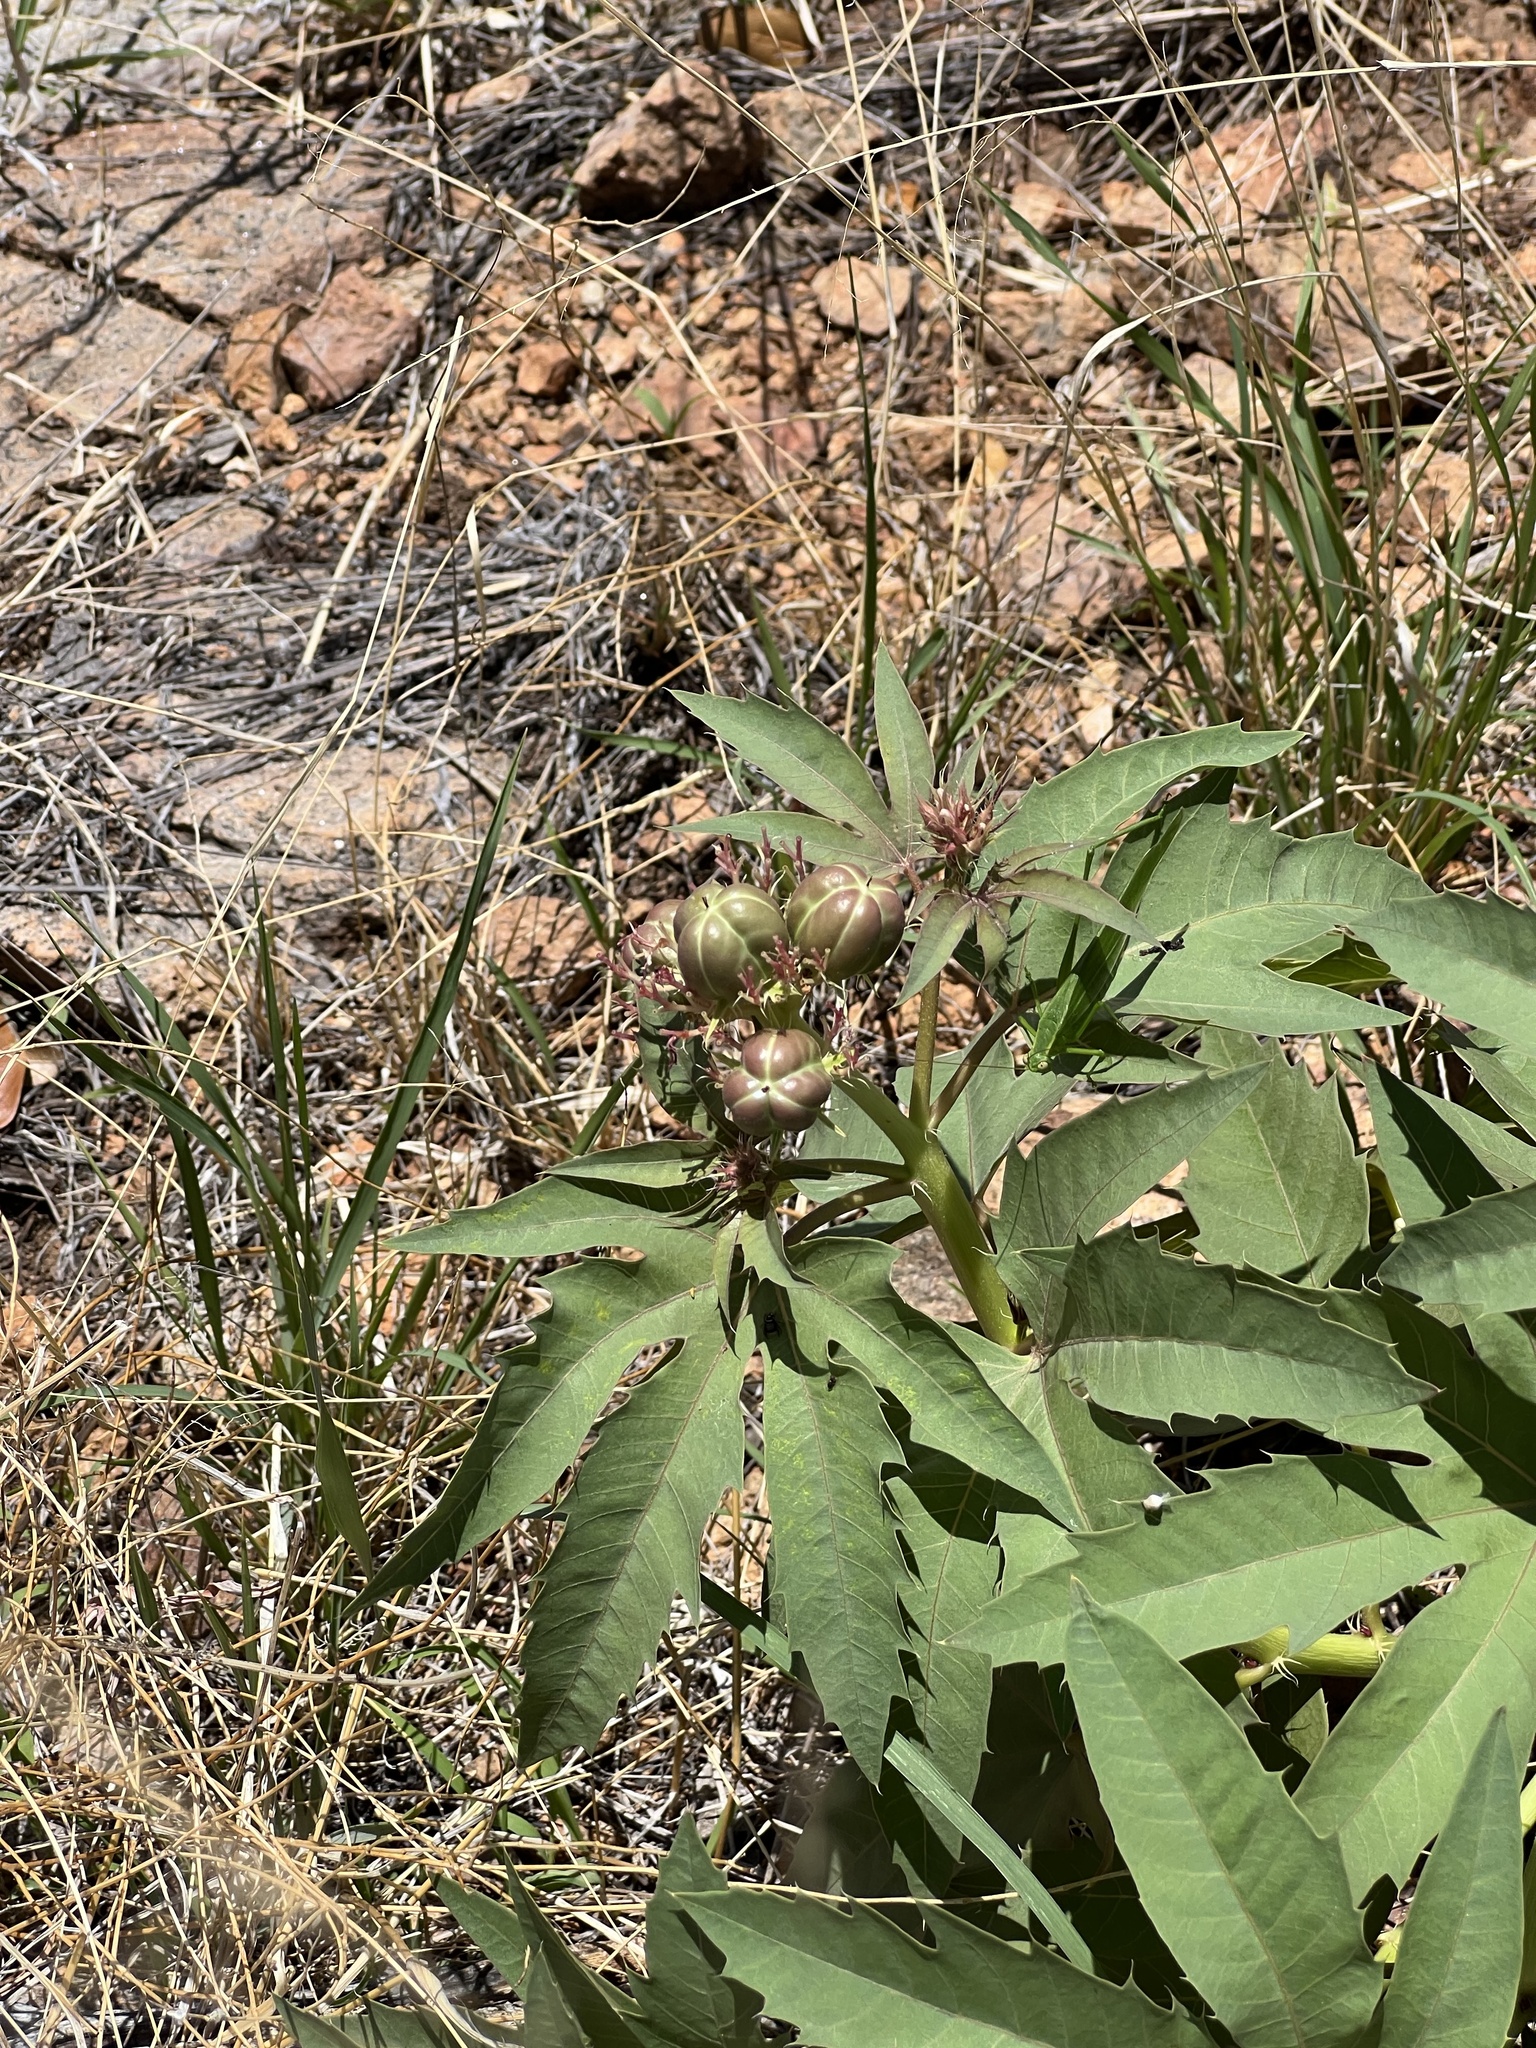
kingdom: Plantae
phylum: Tracheophyta
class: Magnoliopsida
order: Malpighiales
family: Euphorbiaceae
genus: Jatropha
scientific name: Jatropha macrorhiza
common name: Ragged nettlespurge
